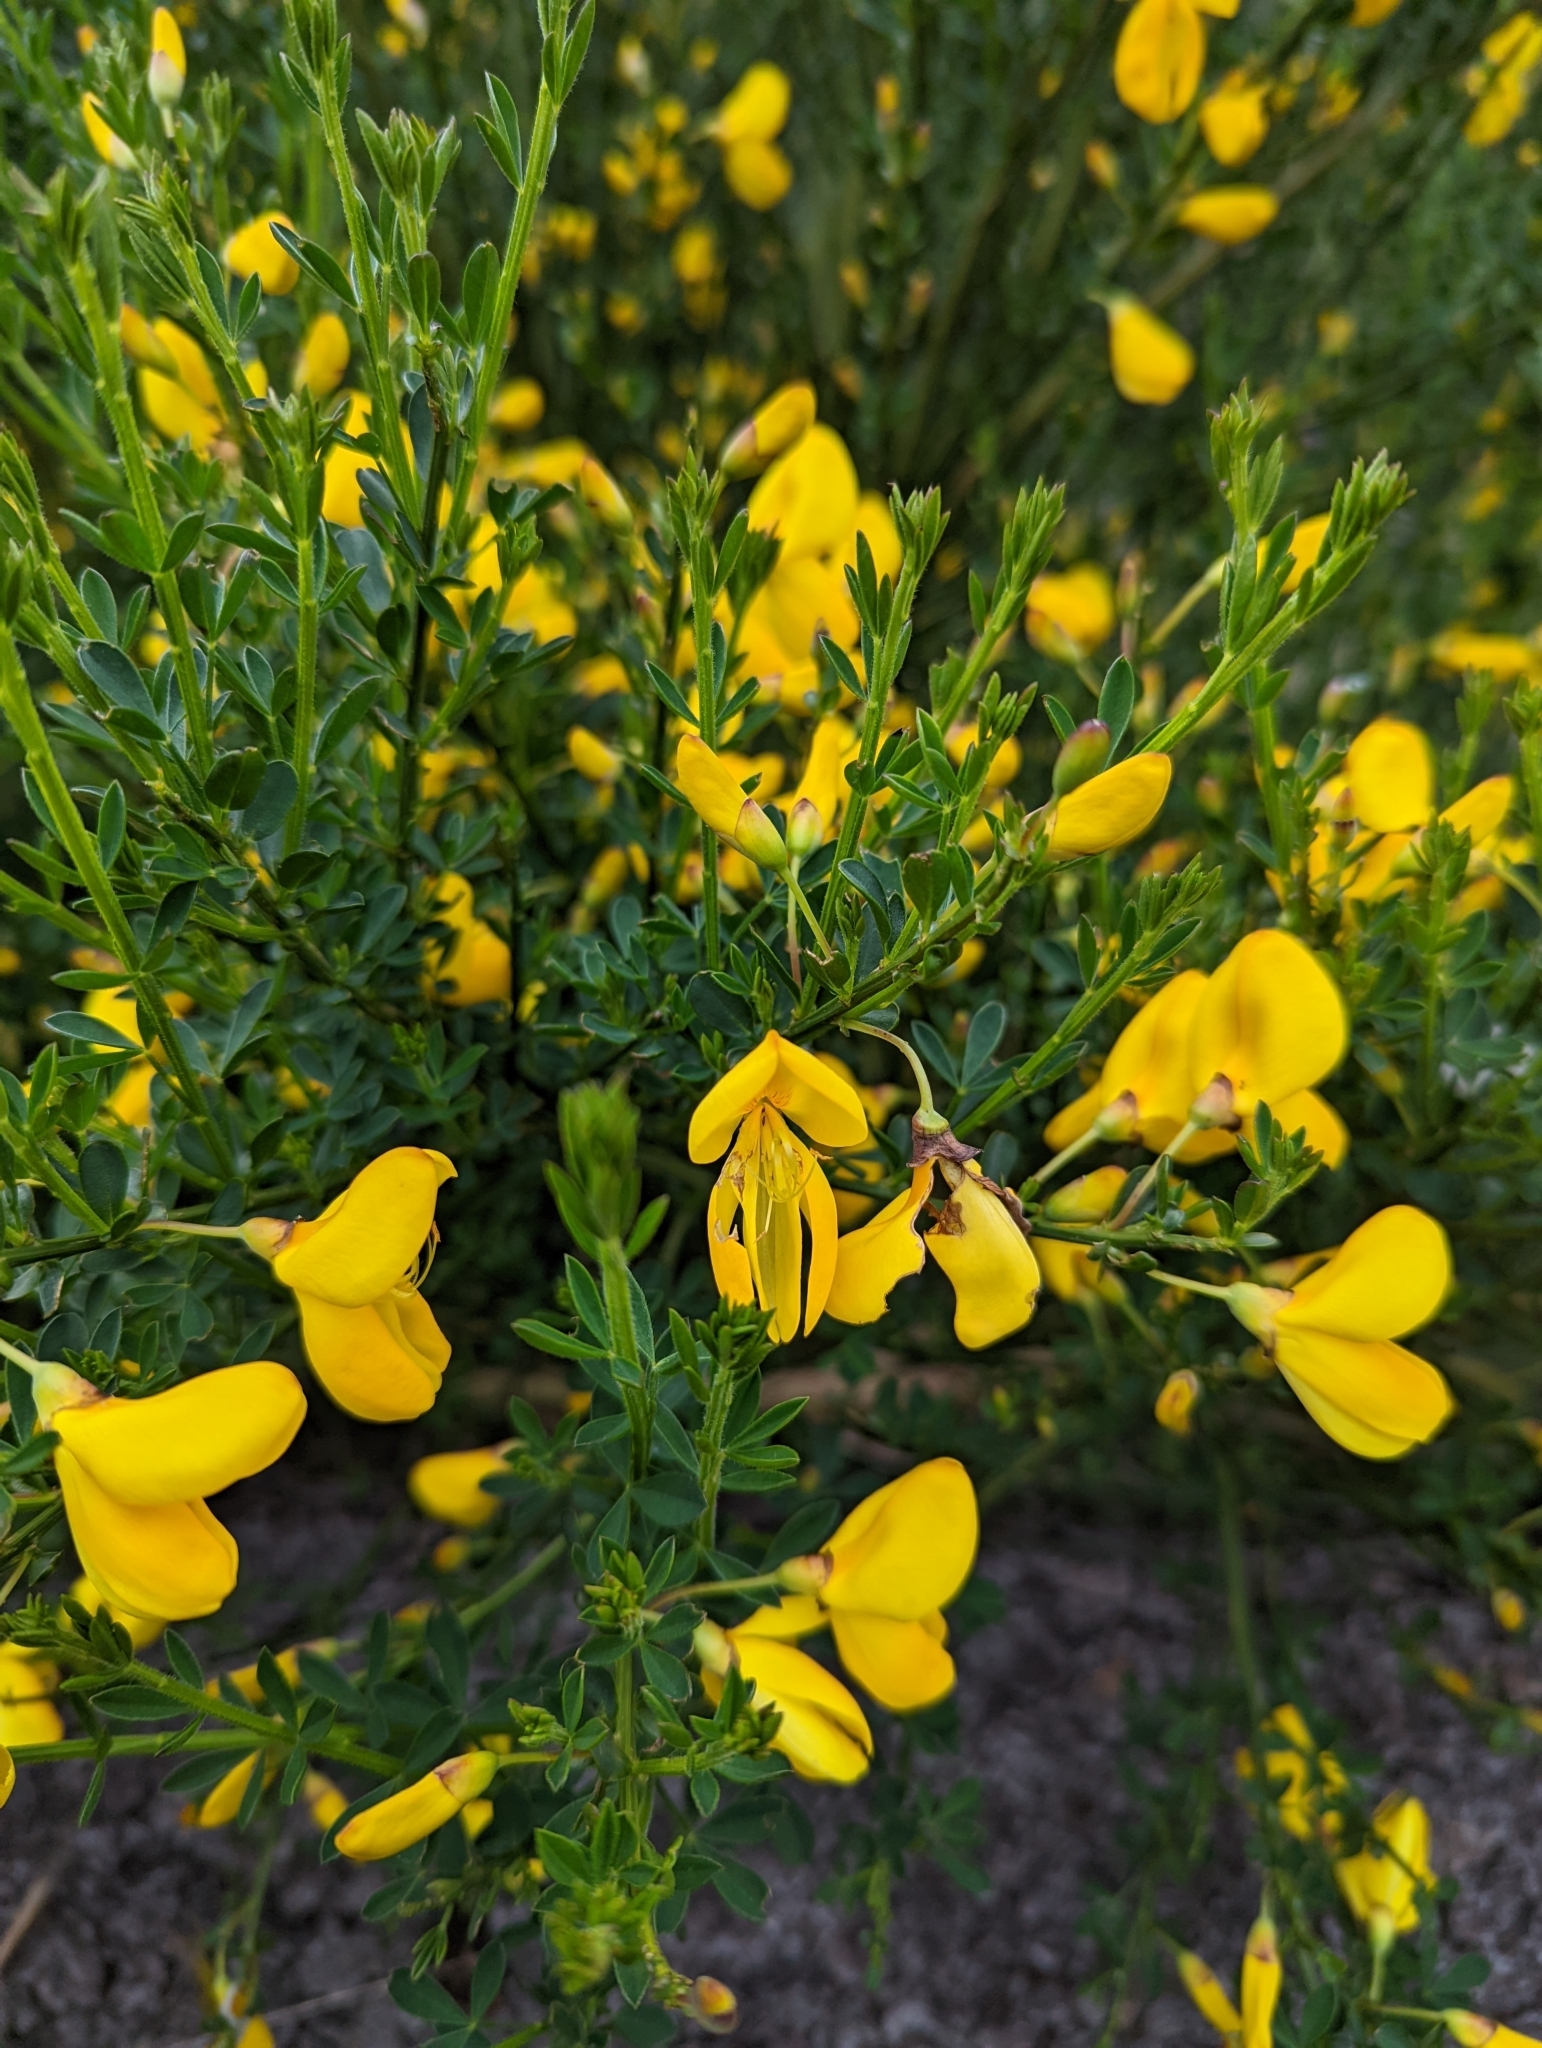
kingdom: Plantae
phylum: Tracheophyta
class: Magnoliopsida
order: Fabales
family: Fabaceae
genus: Cytisus
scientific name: Cytisus scoparius
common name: Scotch broom
